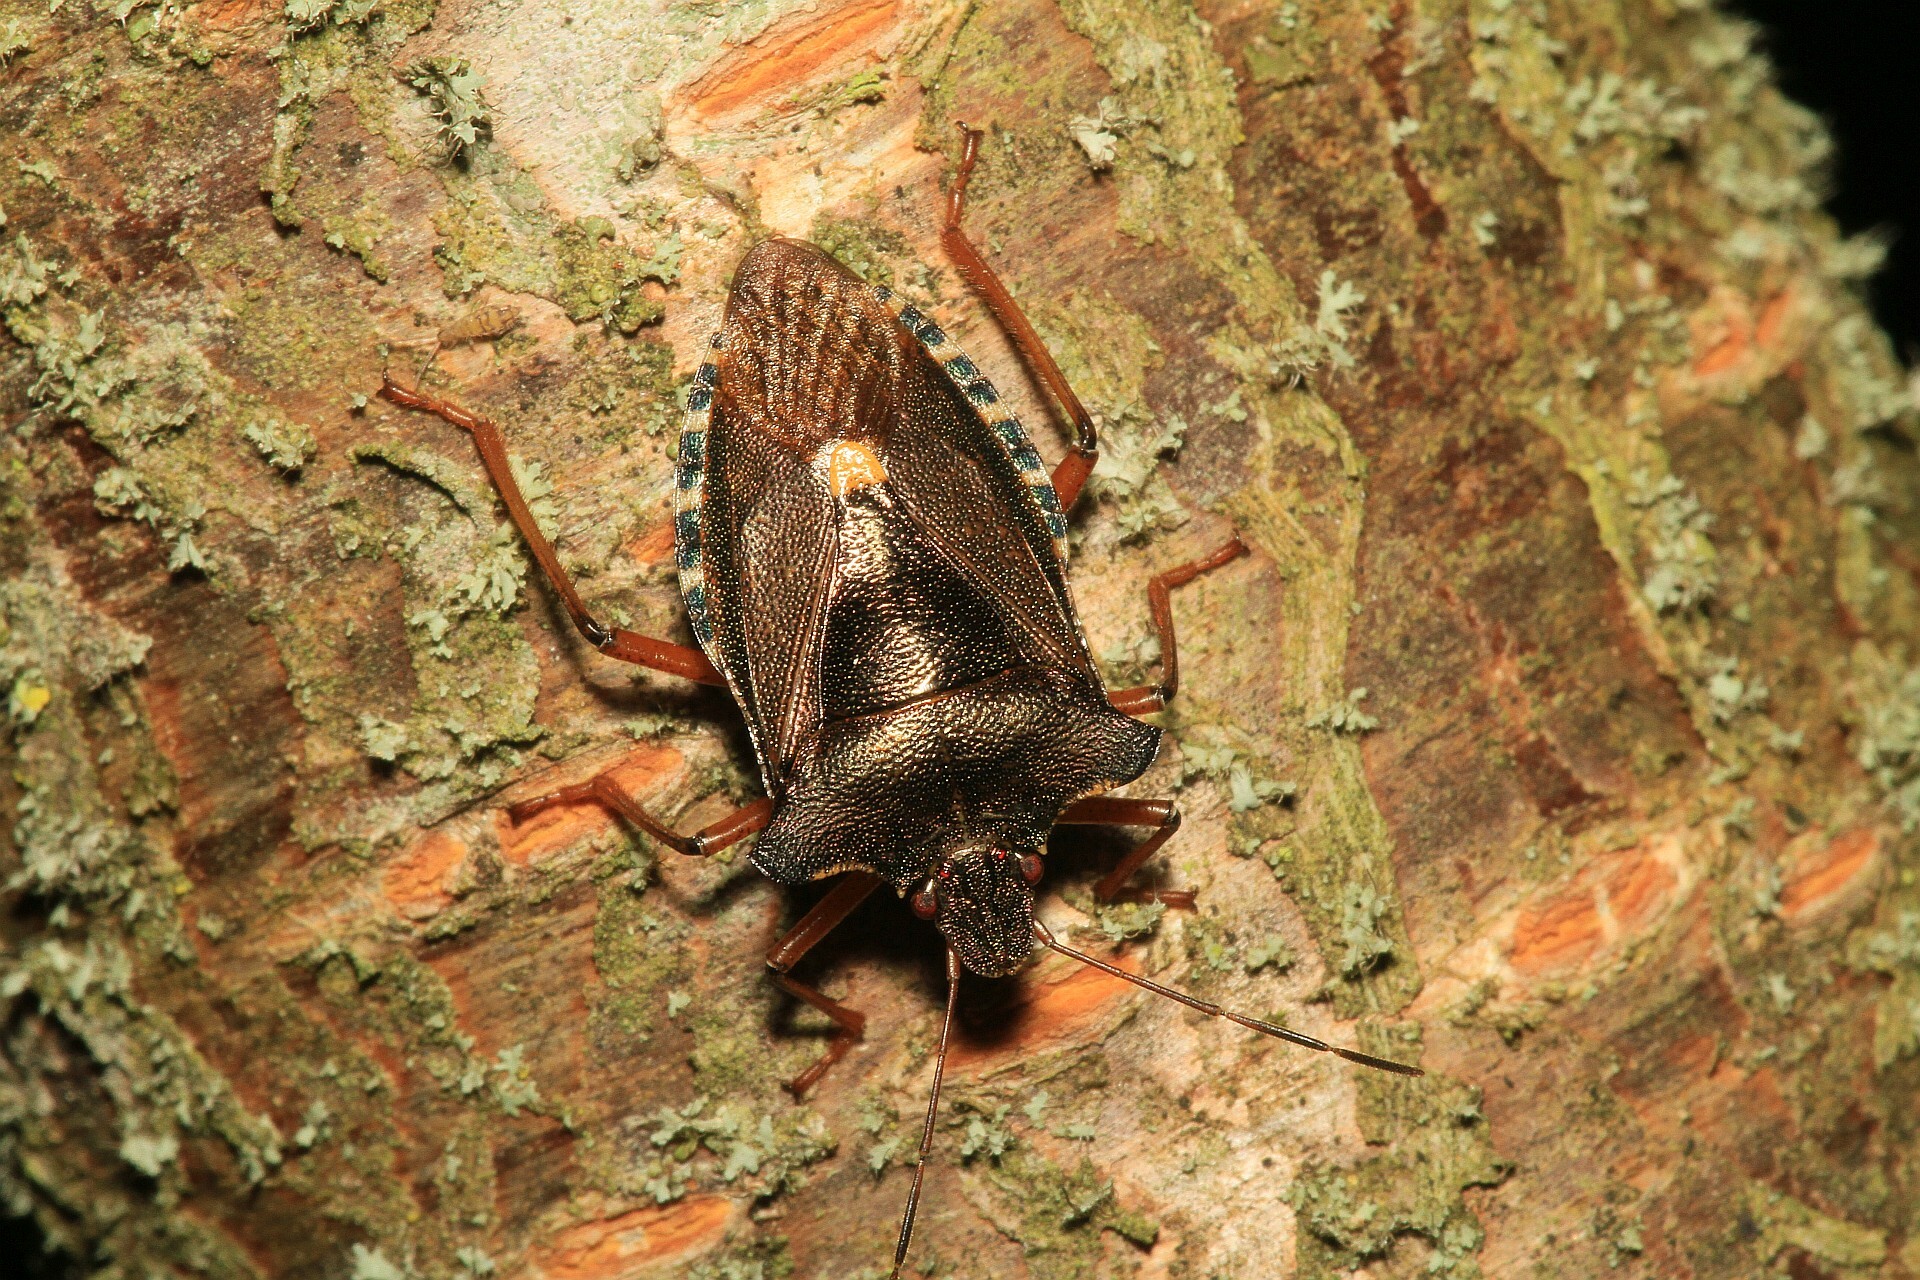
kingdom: Animalia
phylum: Arthropoda
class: Insecta
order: Hemiptera
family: Pentatomidae
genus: Pentatoma
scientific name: Pentatoma rufipes
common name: Forest bug
